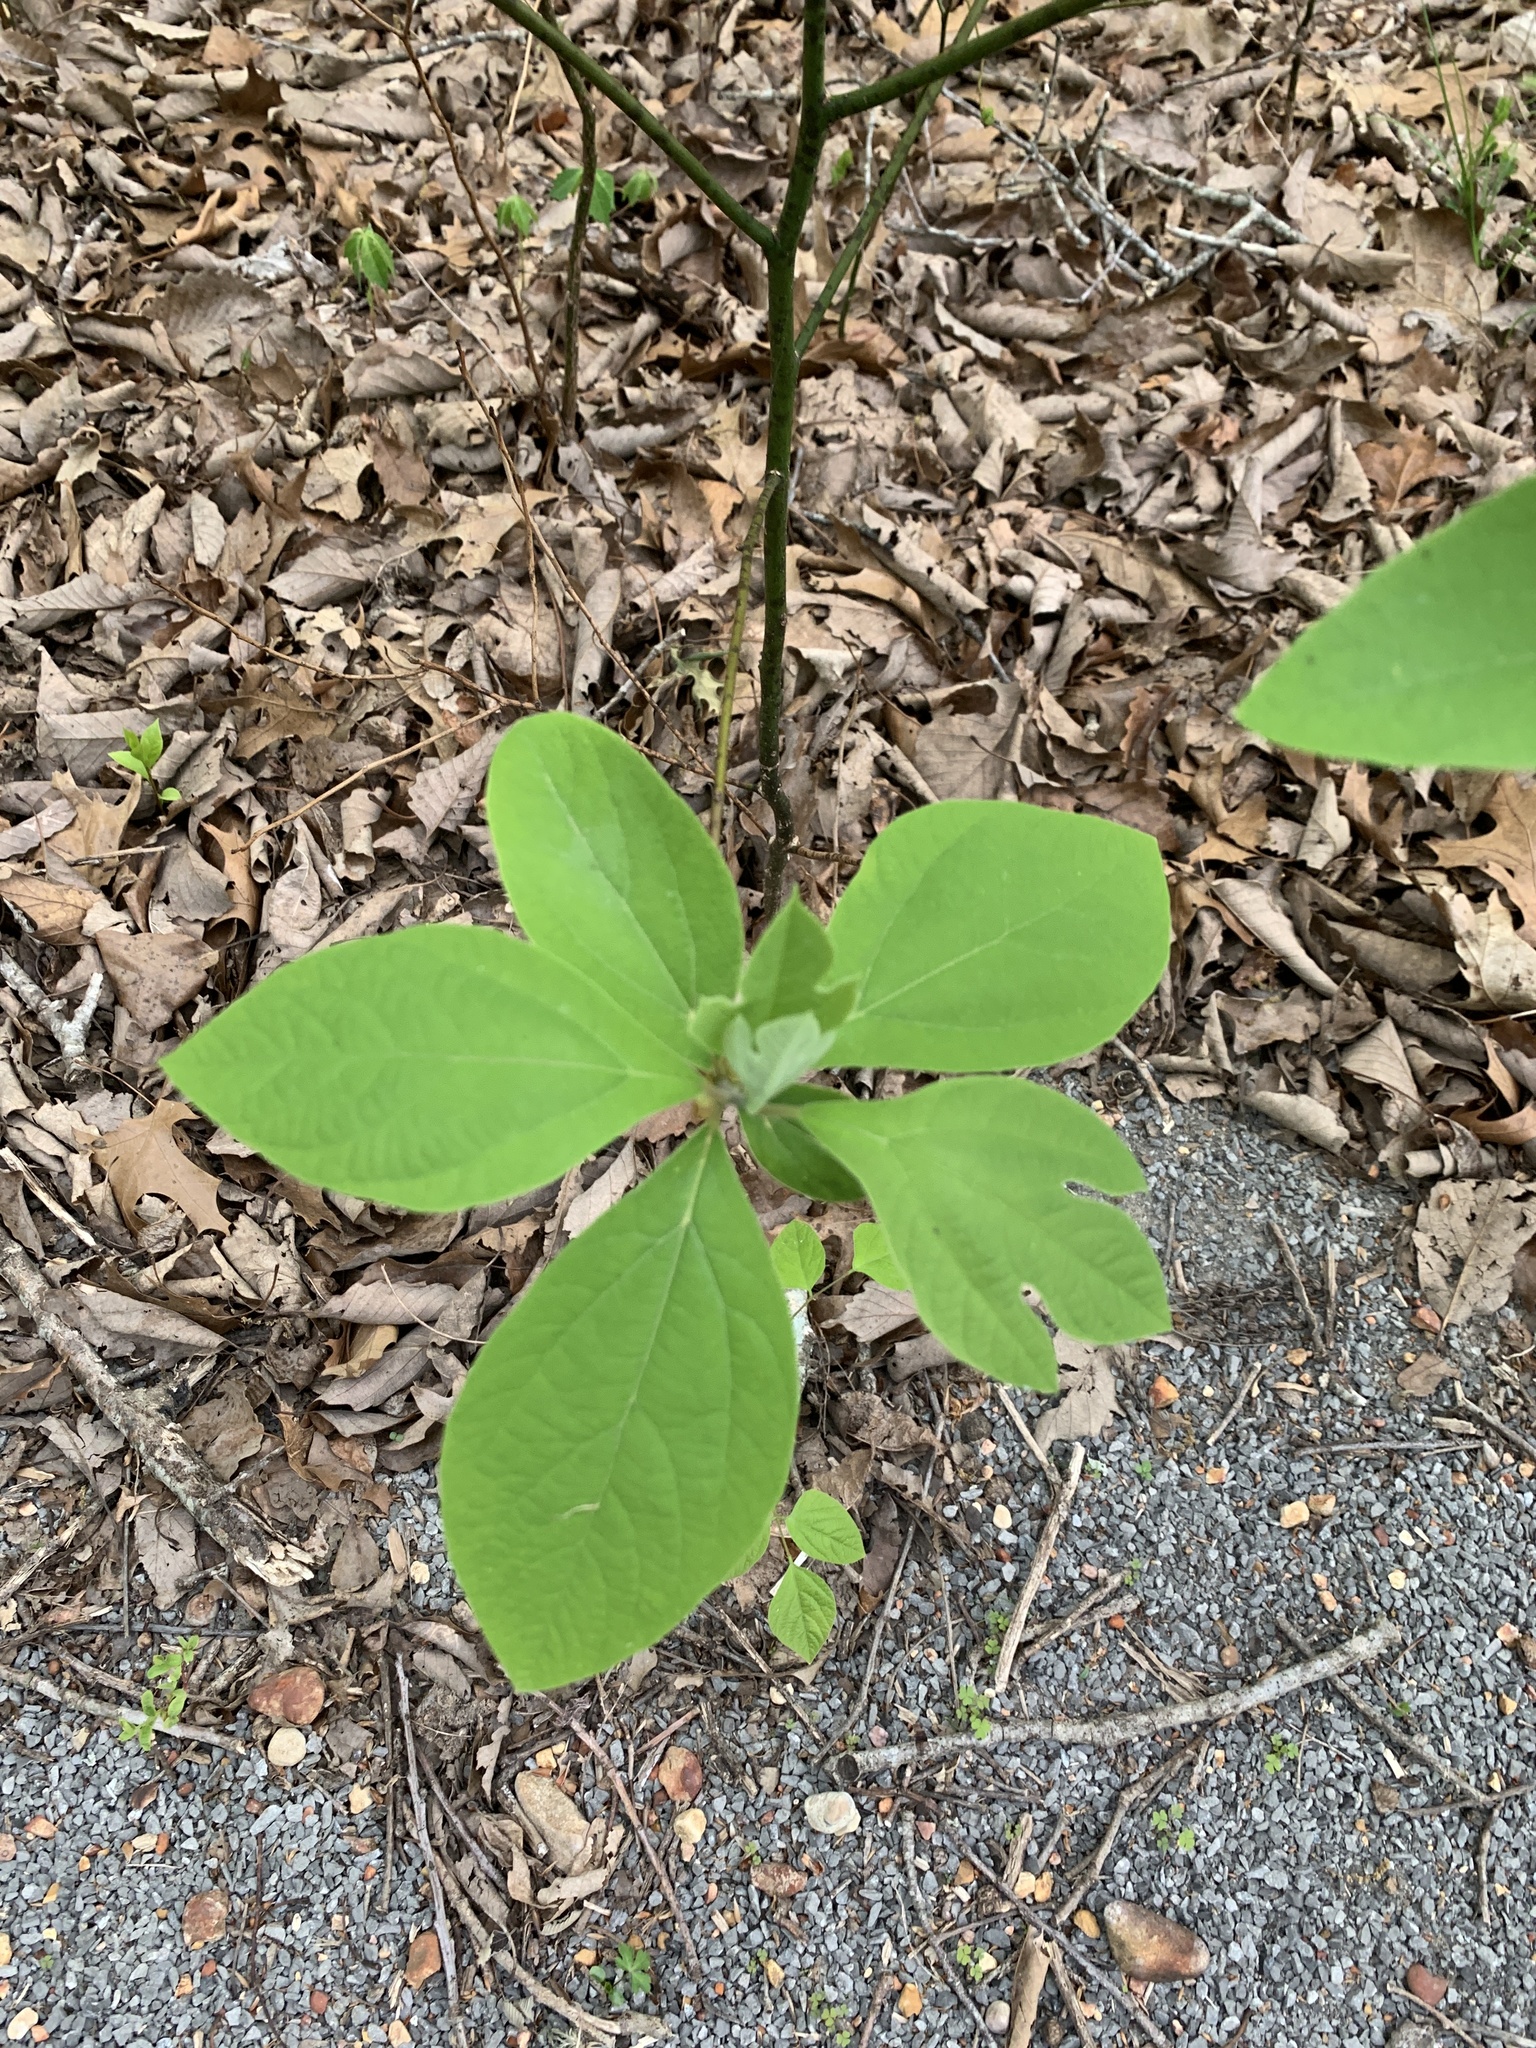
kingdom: Plantae
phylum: Tracheophyta
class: Magnoliopsida
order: Laurales
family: Lauraceae
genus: Sassafras
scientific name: Sassafras albidum
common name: Sassafras
